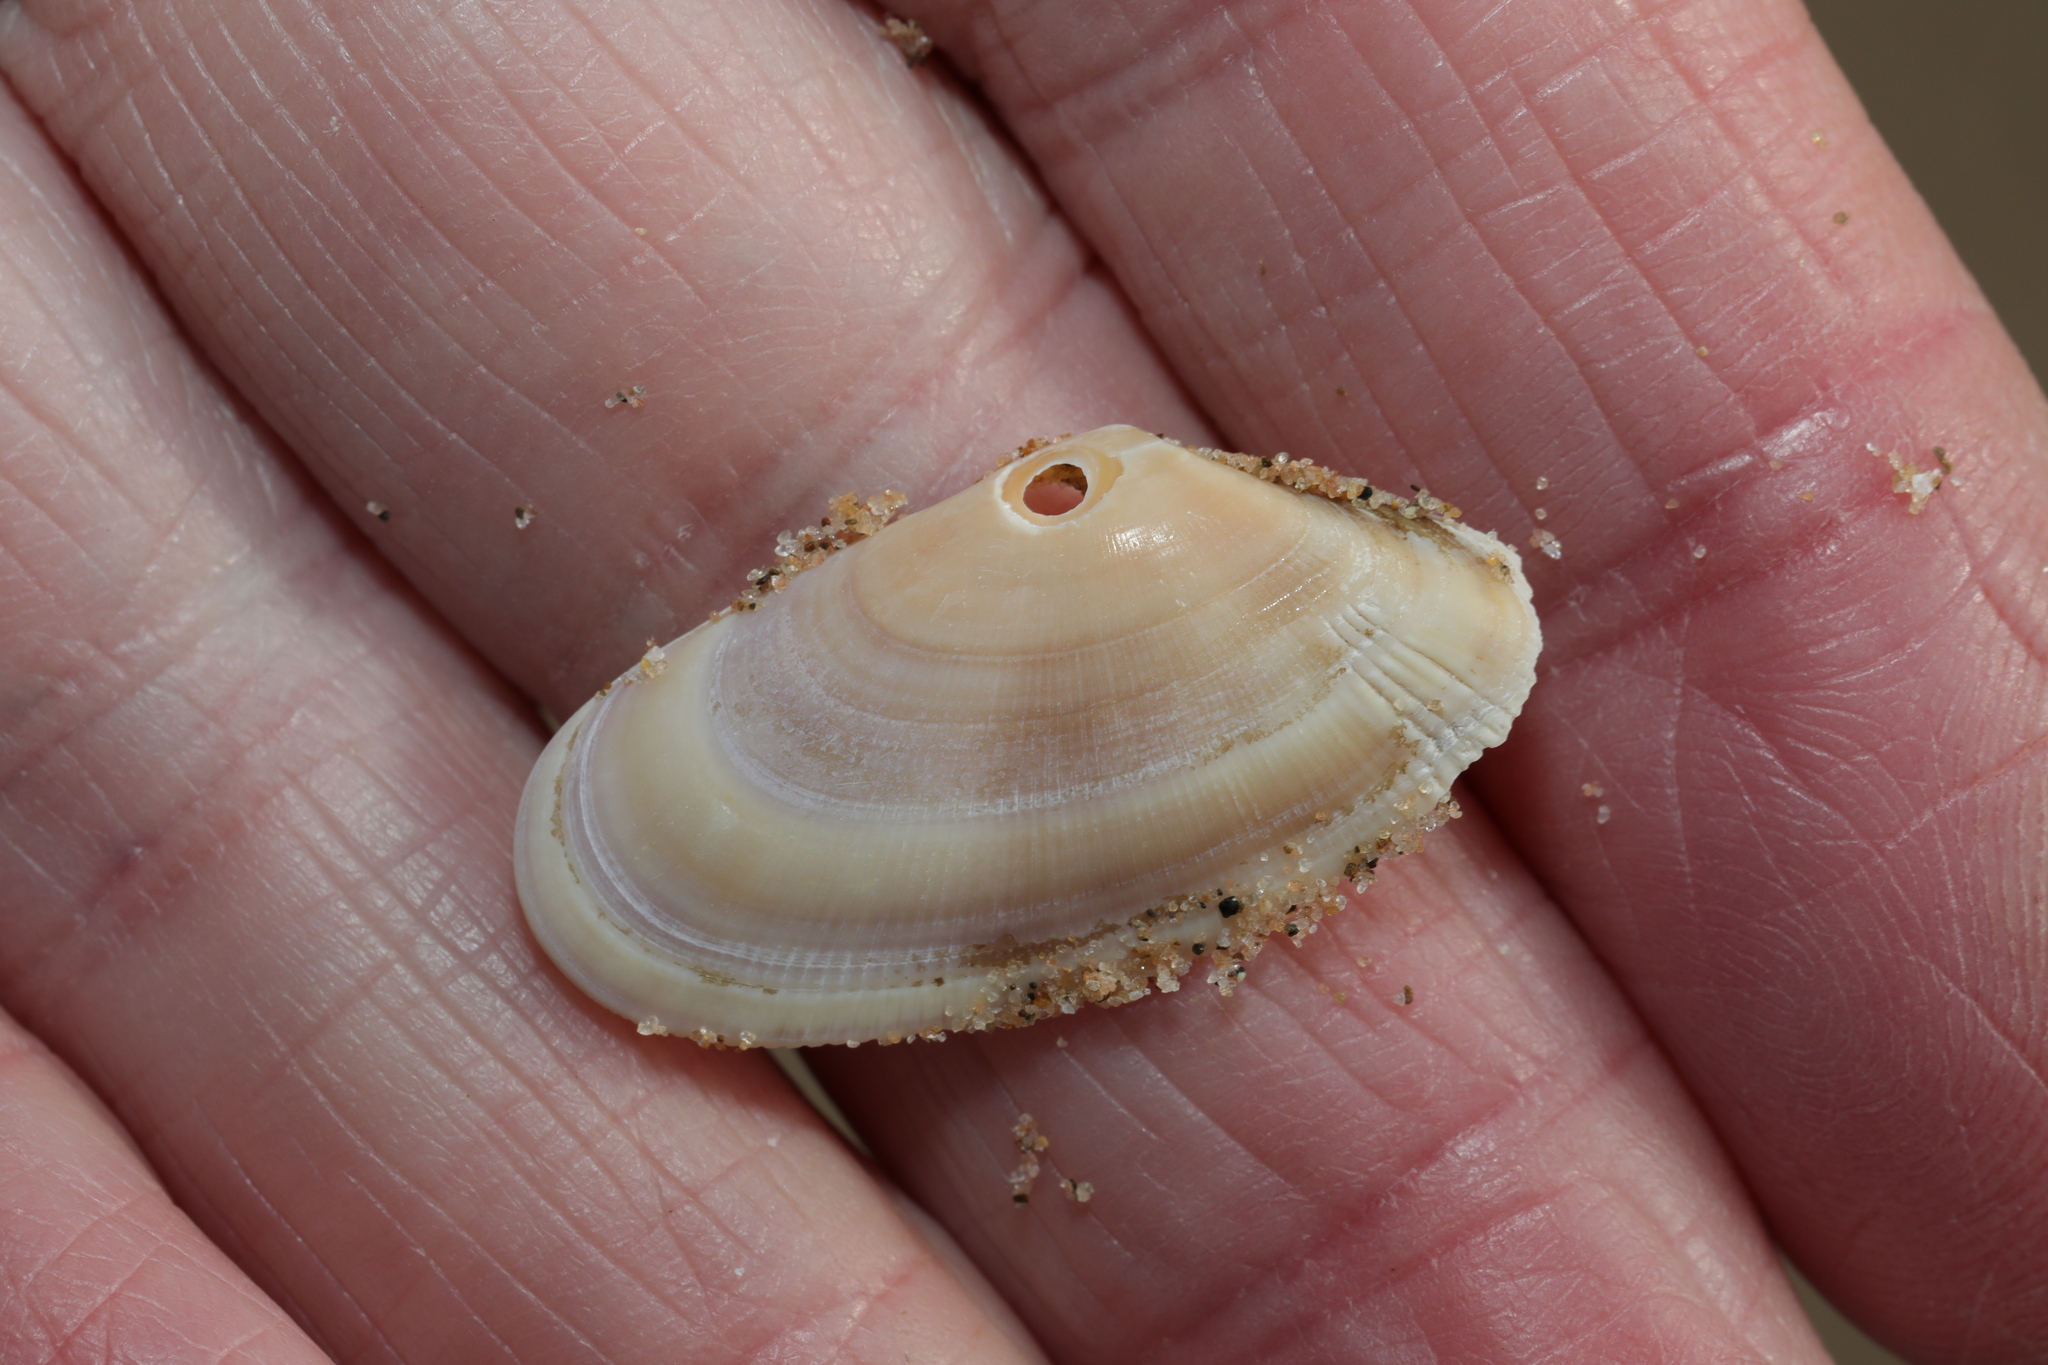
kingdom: Animalia
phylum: Mollusca
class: Bivalvia
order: Cardiida
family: Donacidae
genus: Donax
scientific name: Donax vittatus
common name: Banded wedge-shell
